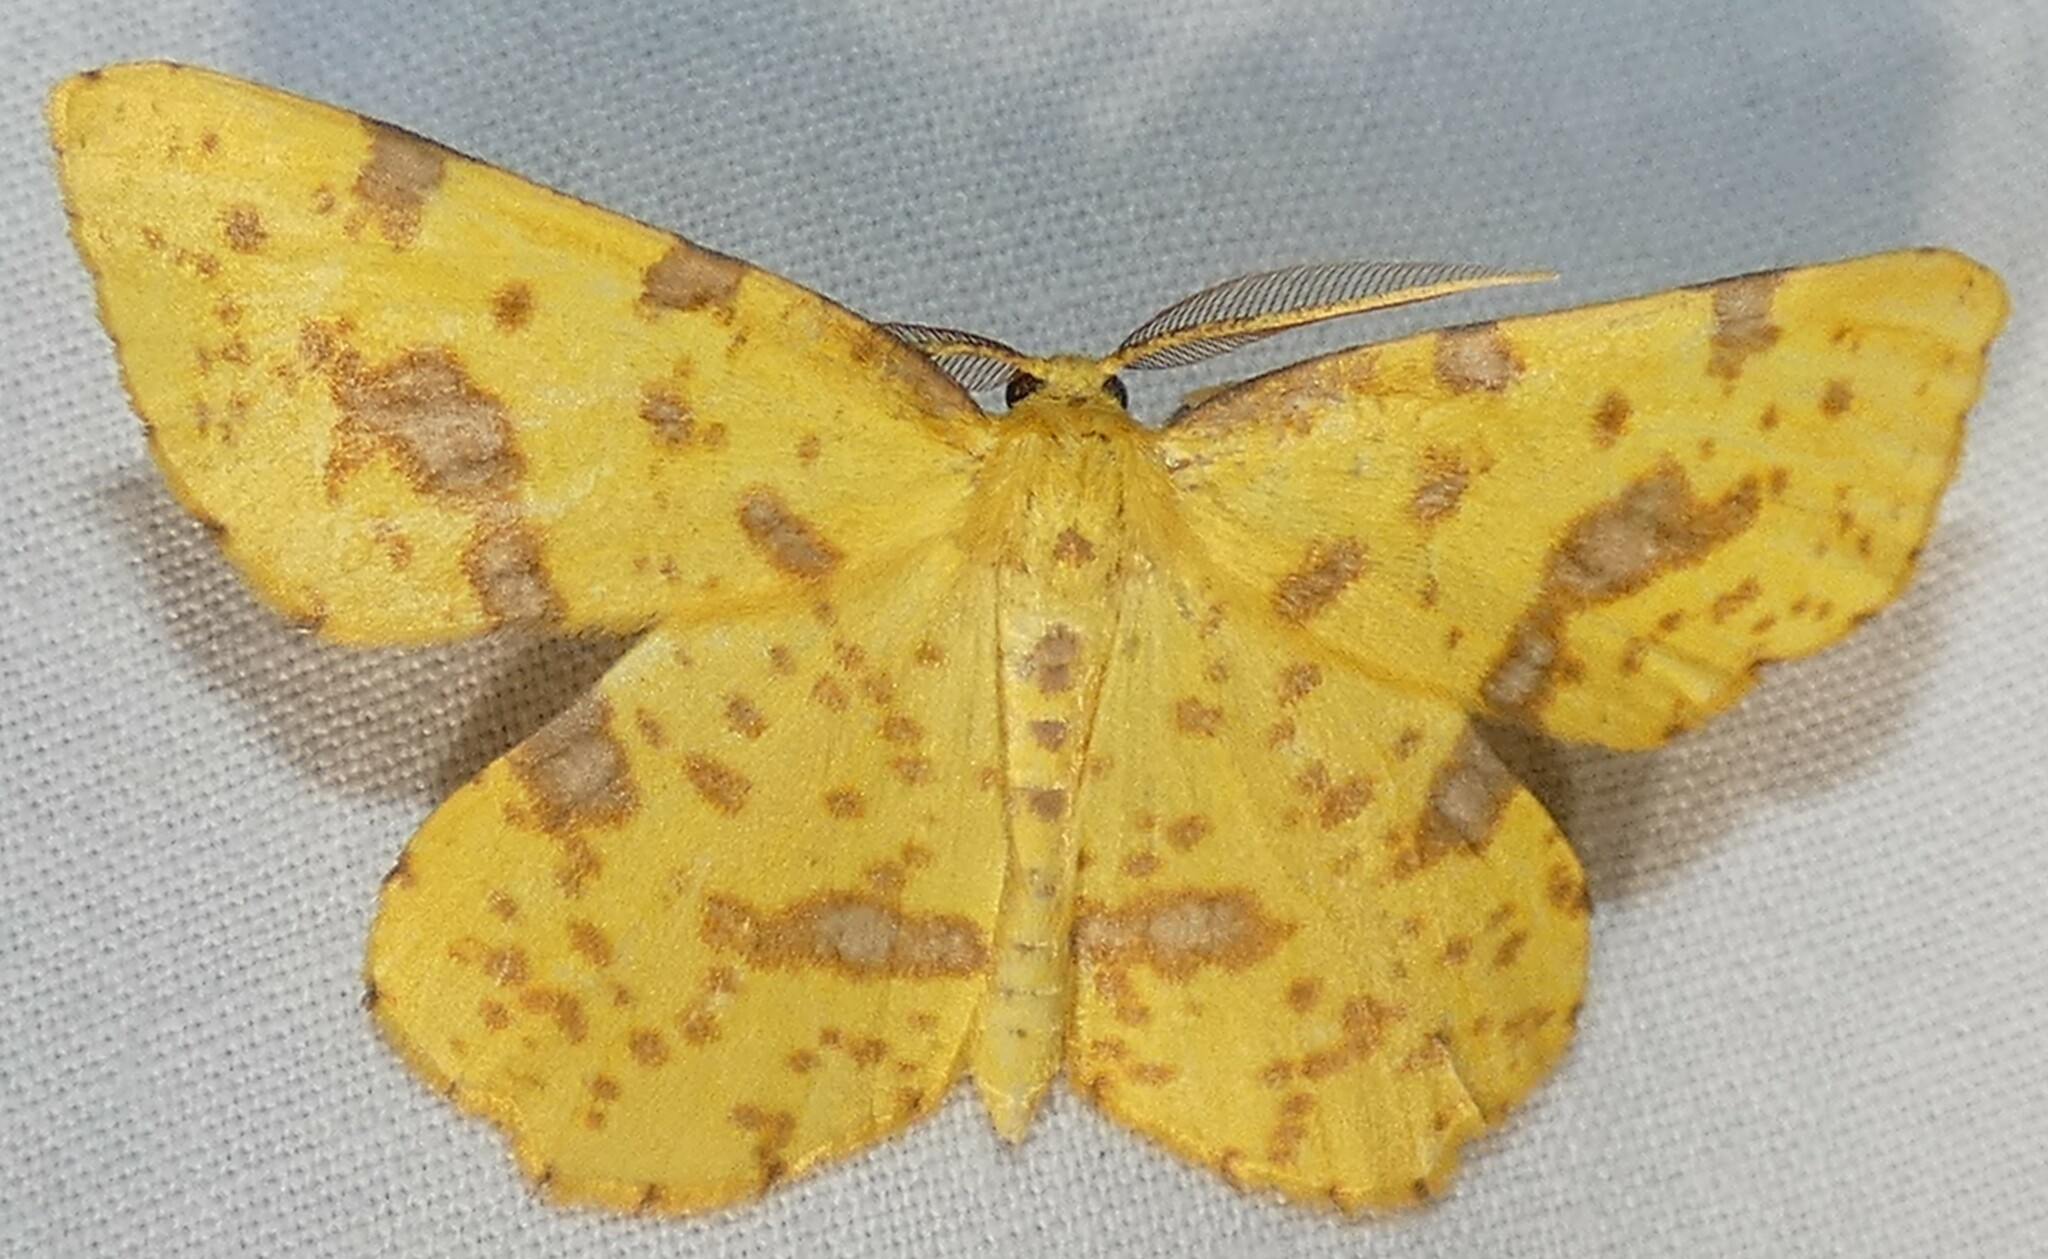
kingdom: Animalia
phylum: Arthropoda
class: Insecta
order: Lepidoptera
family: Geometridae
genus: Xanthotype
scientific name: Xanthotype
